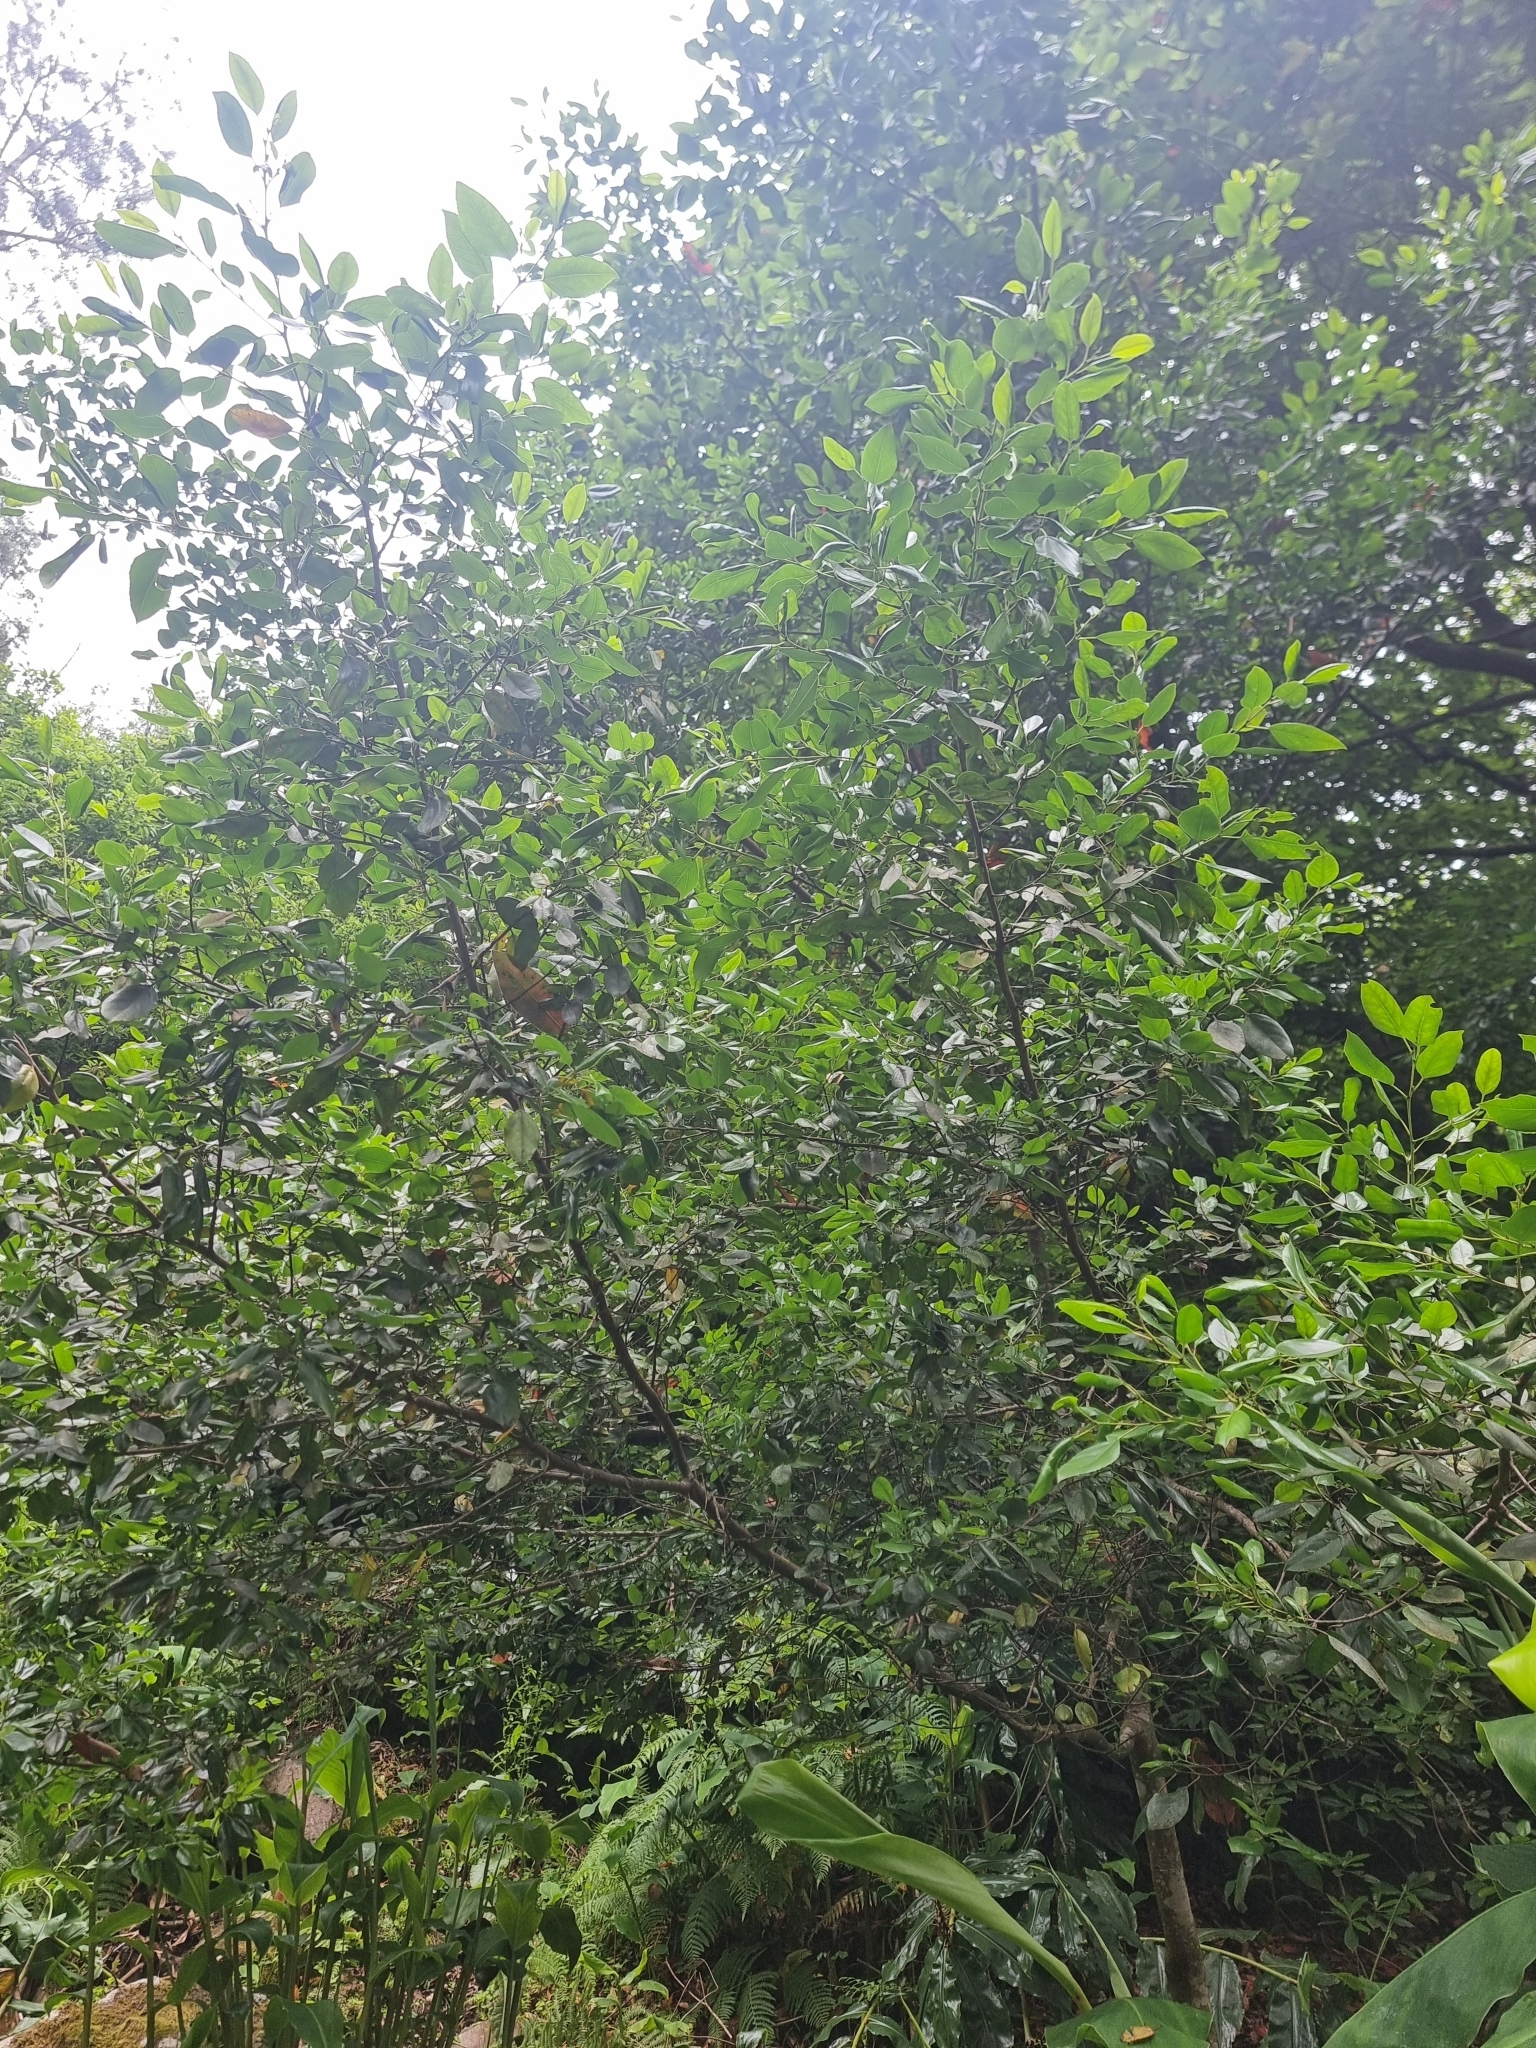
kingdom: Plantae
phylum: Tracheophyta
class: Magnoliopsida
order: Rosales
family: Rhamnaceae
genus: Rhamnus
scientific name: Rhamnus glandulosa
